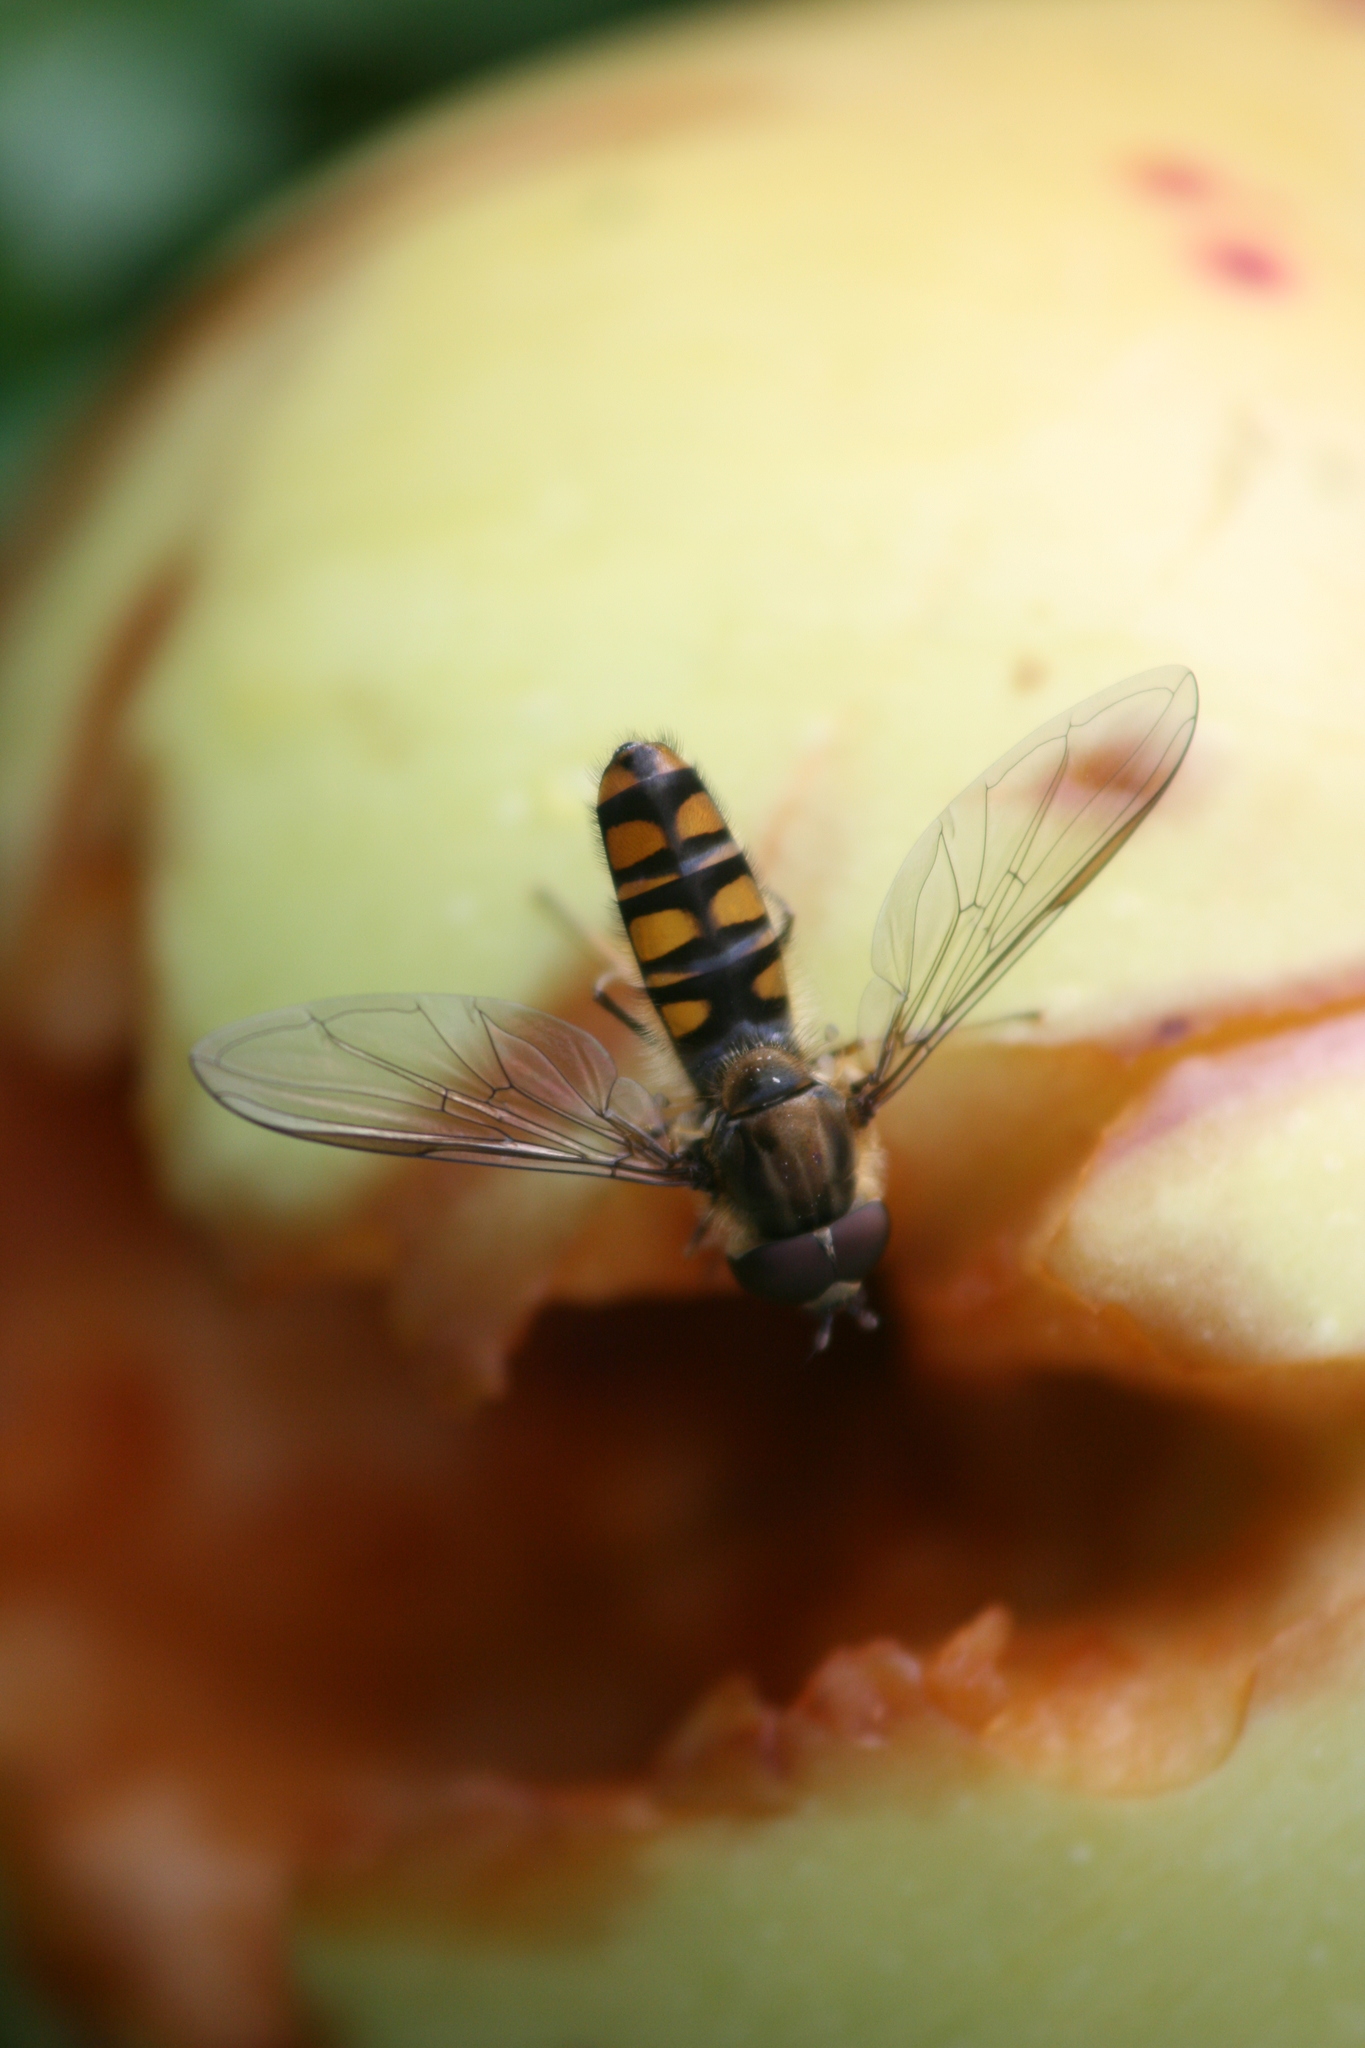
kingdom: Animalia
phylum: Arthropoda
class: Insecta
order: Diptera
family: Syrphidae
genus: Episyrphus
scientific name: Episyrphus balteatus
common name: Marmalade hoverfly
